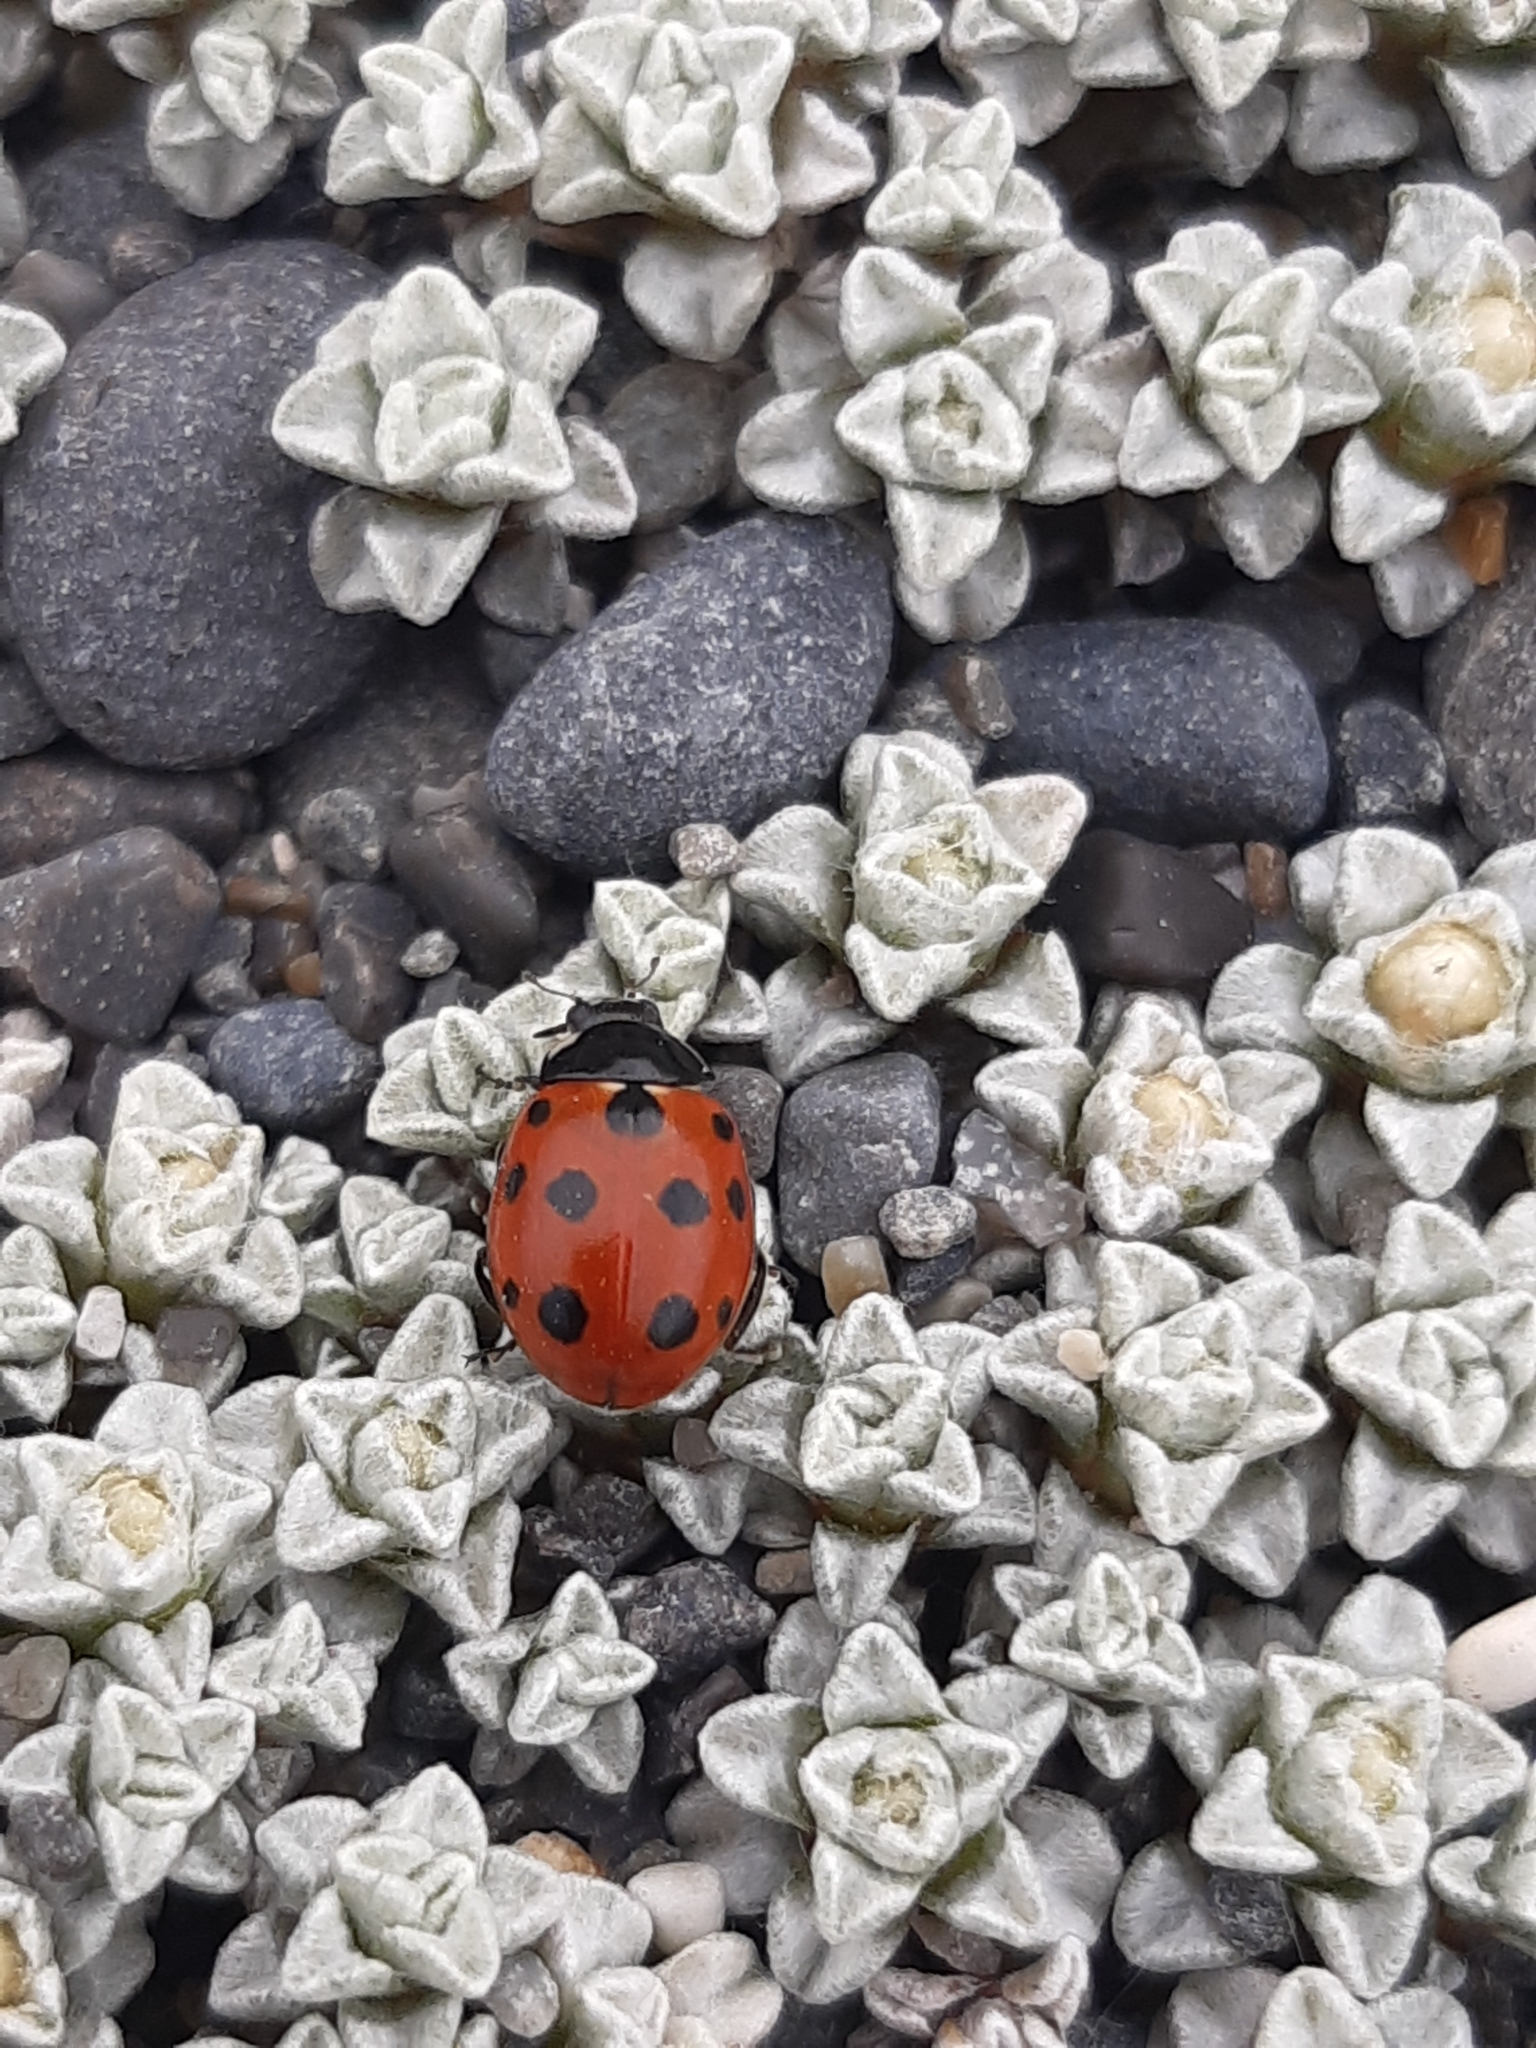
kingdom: Animalia
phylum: Arthropoda
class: Insecta
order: Coleoptera
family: Coccinellidae
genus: Coccinella
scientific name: Coccinella undecimpunctata
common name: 11-spot ladybird
